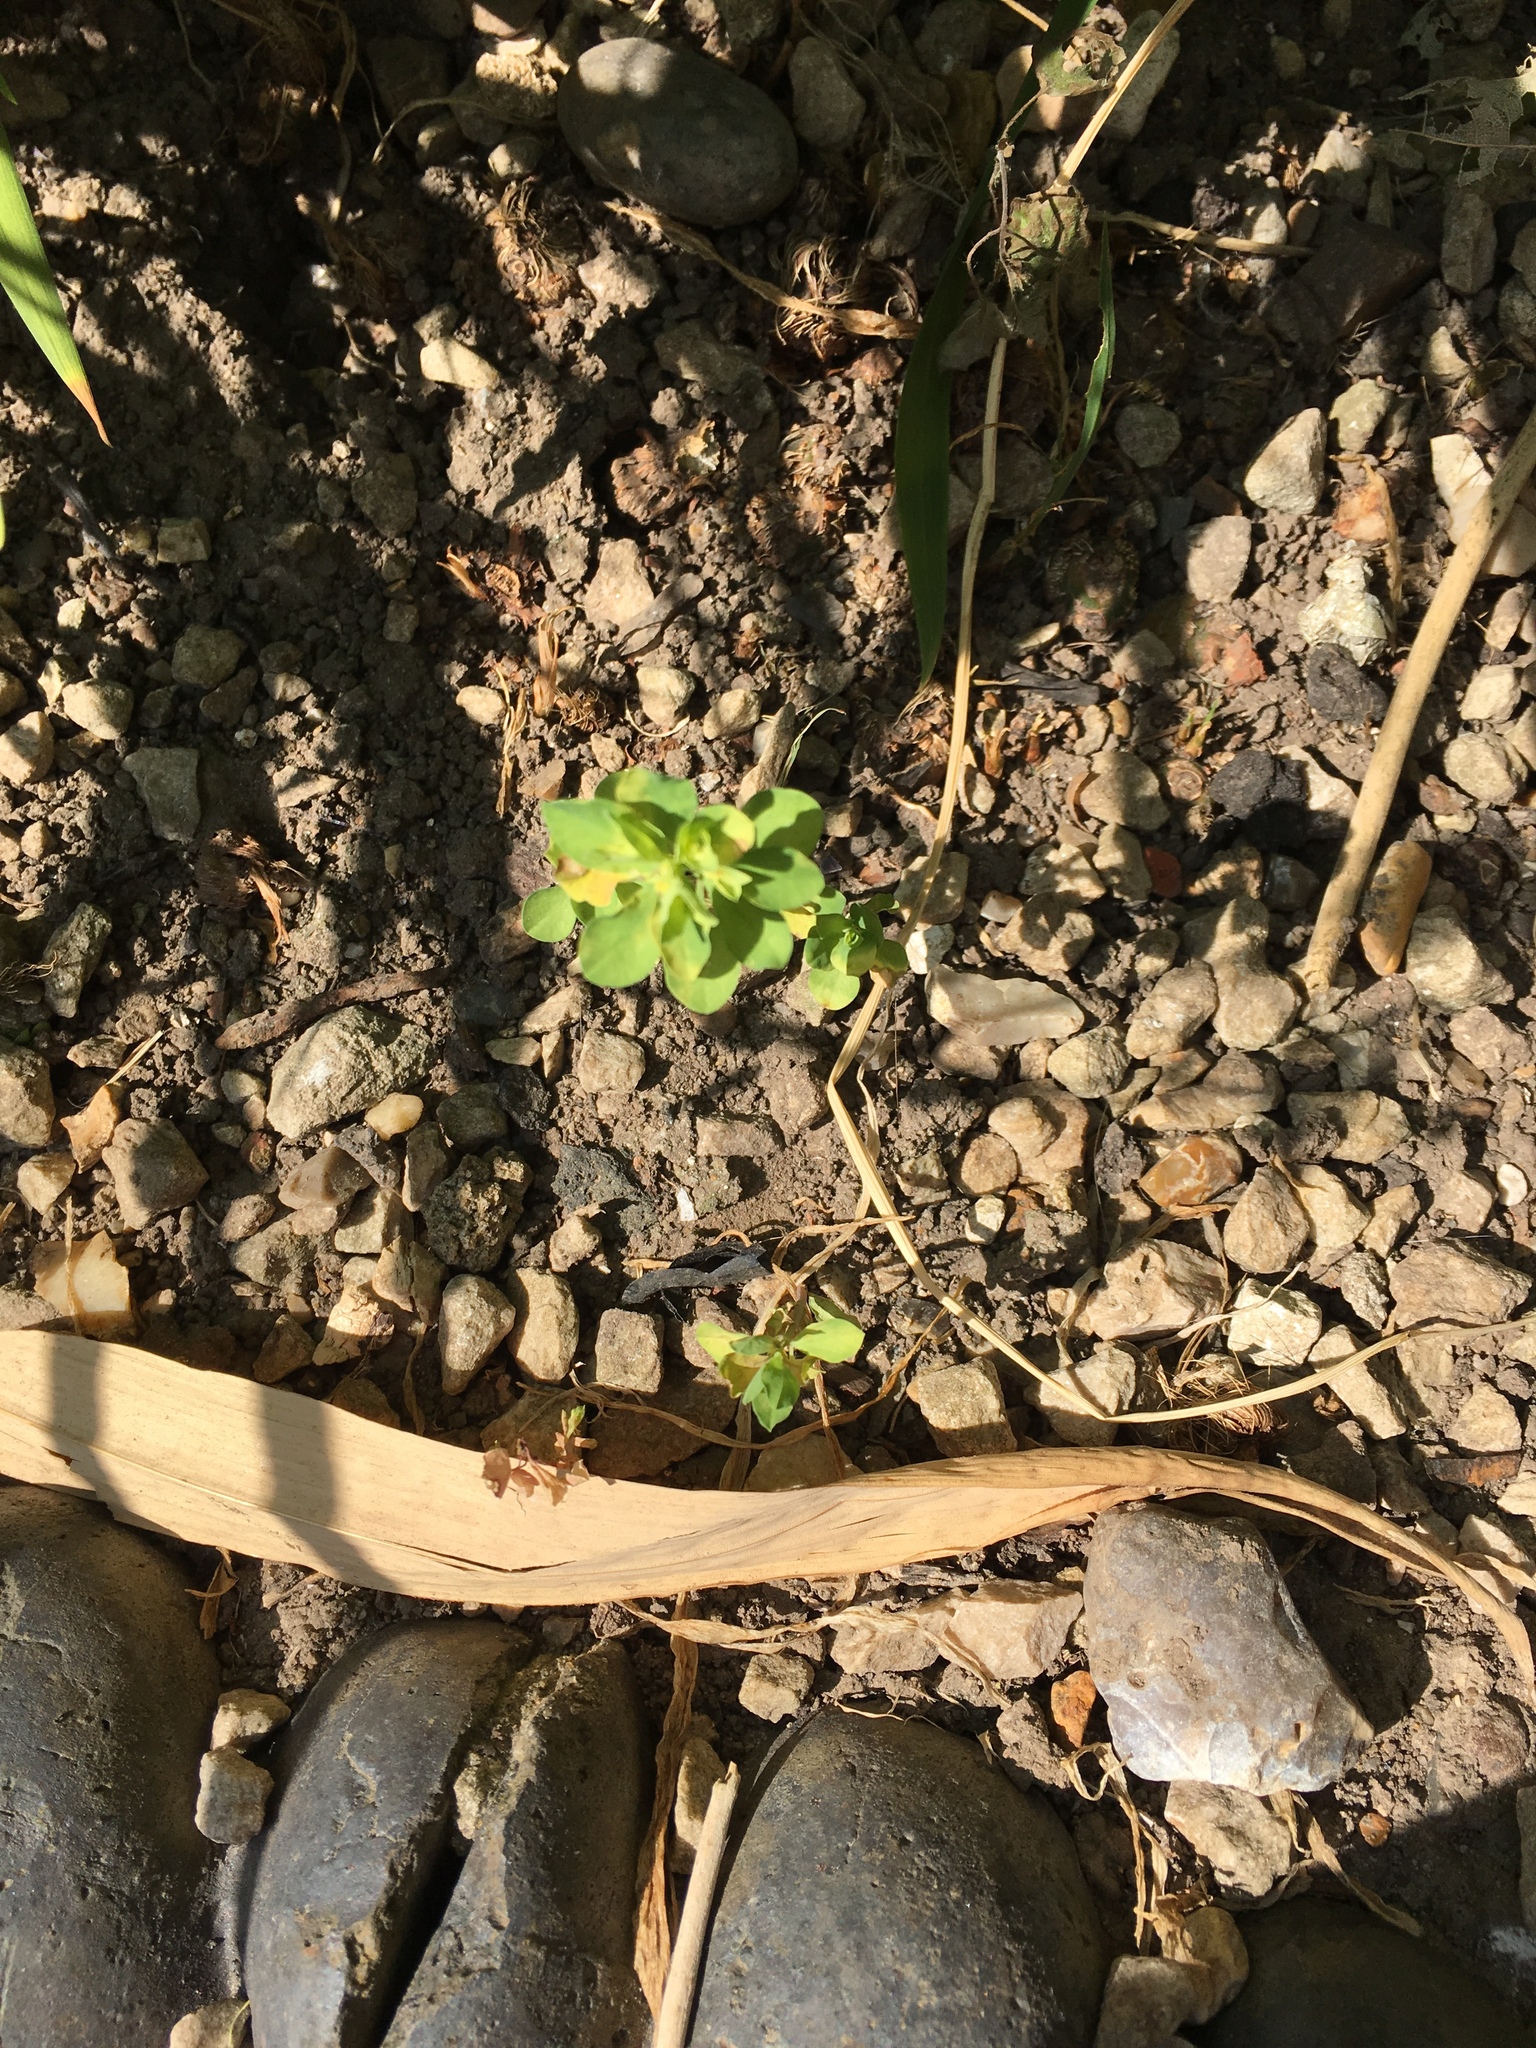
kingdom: Plantae
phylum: Tracheophyta
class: Magnoliopsida
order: Malpighiales
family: Euphorbiaceae
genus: Euphorbia
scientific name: Euphorbia helioscopia
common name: Sun spurge
